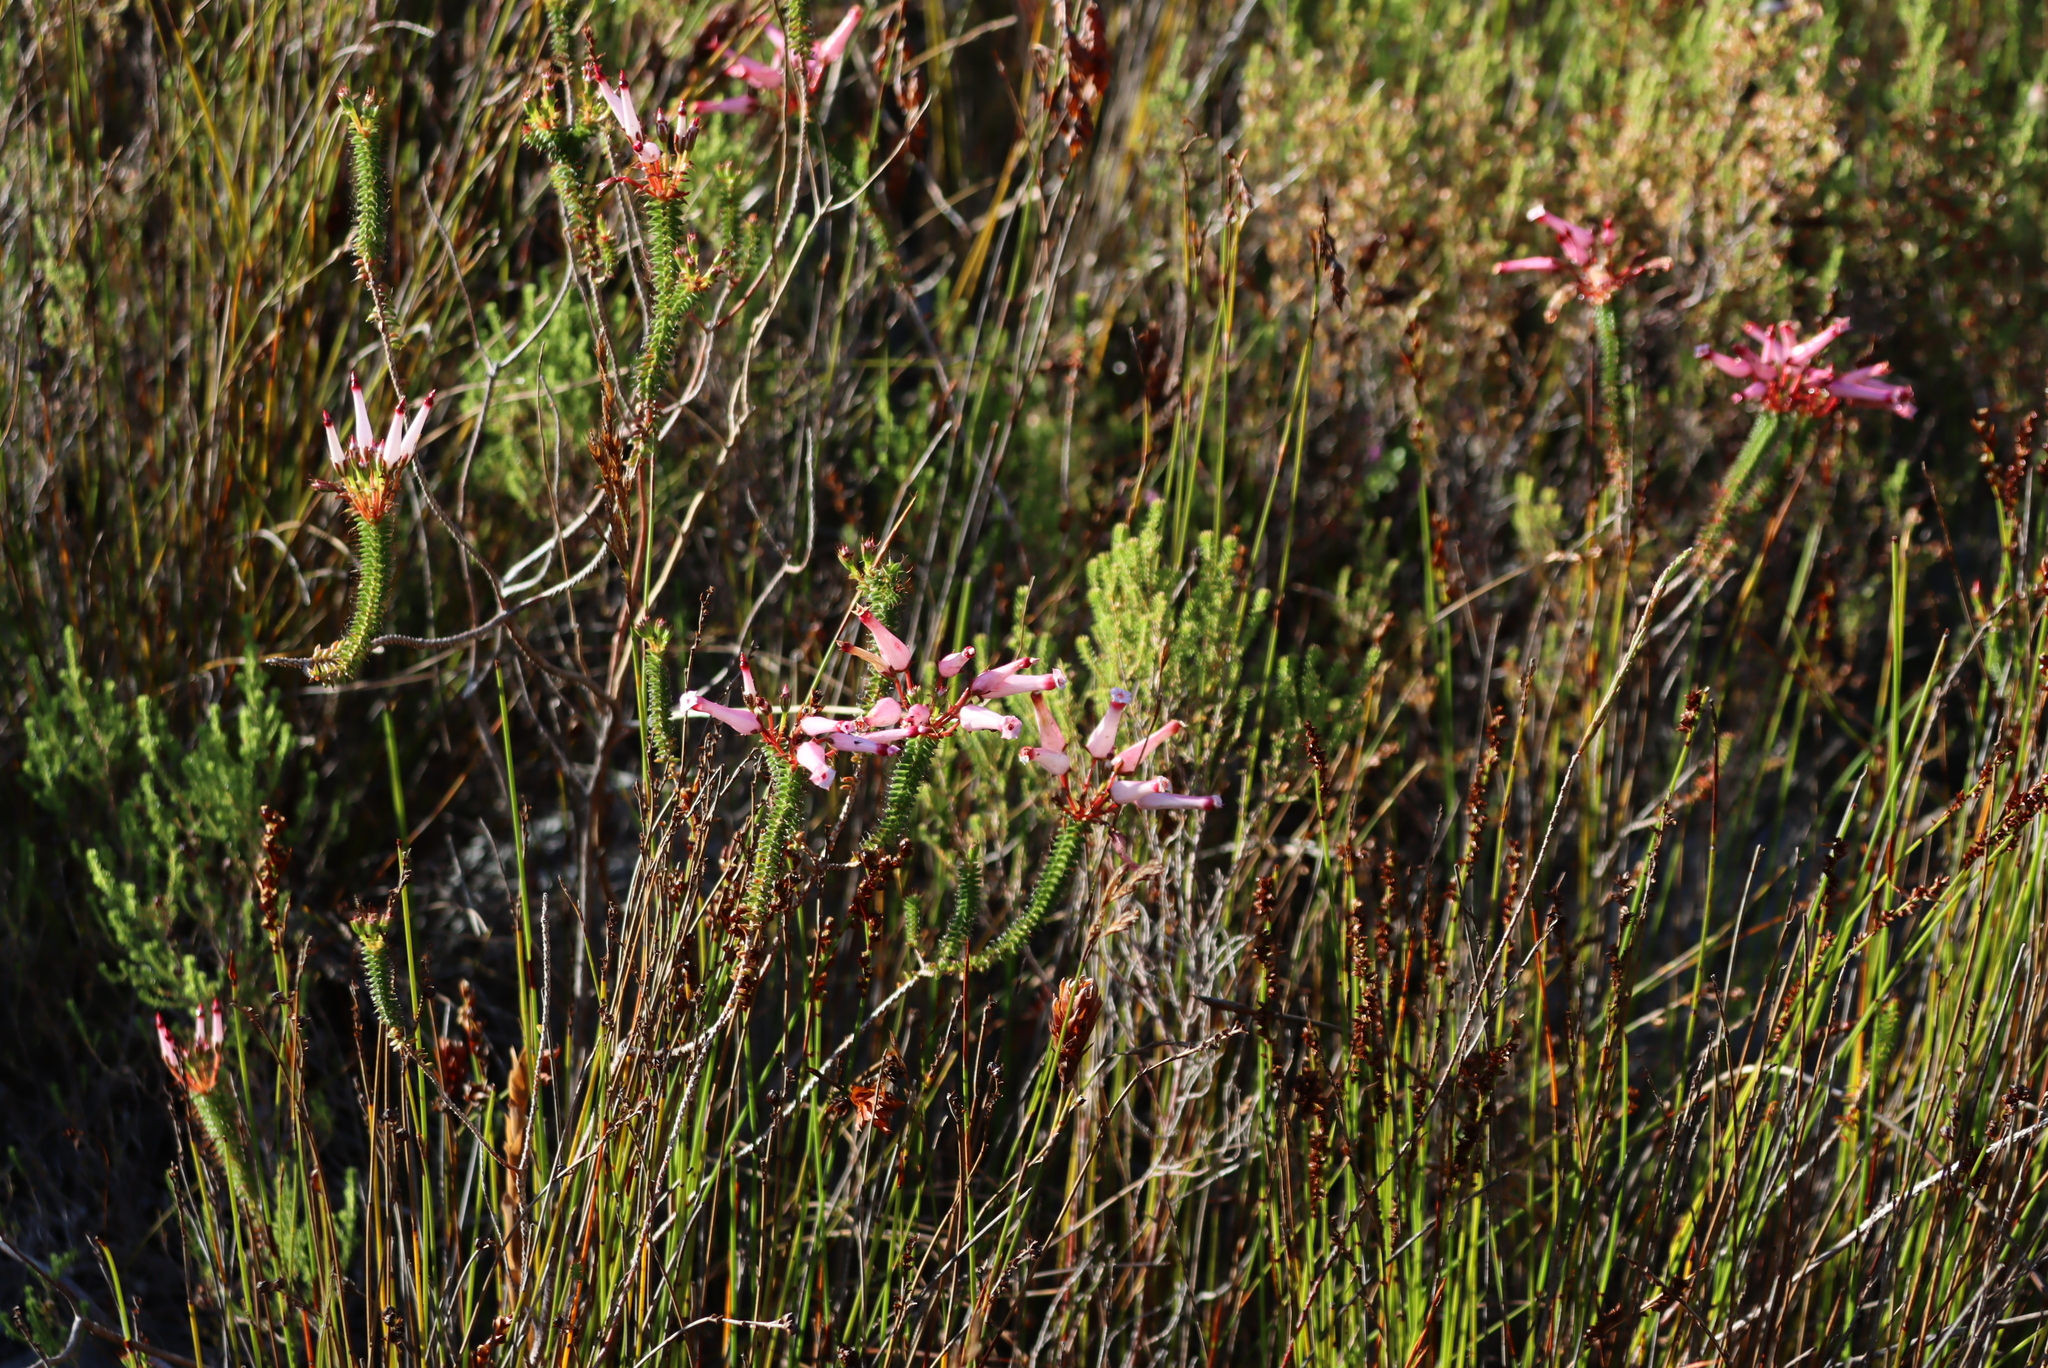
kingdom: Plantae
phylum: Tracheophyta
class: Magnoliopsida
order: Ericales
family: Ericaceae
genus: Erica
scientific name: Erica retorta
